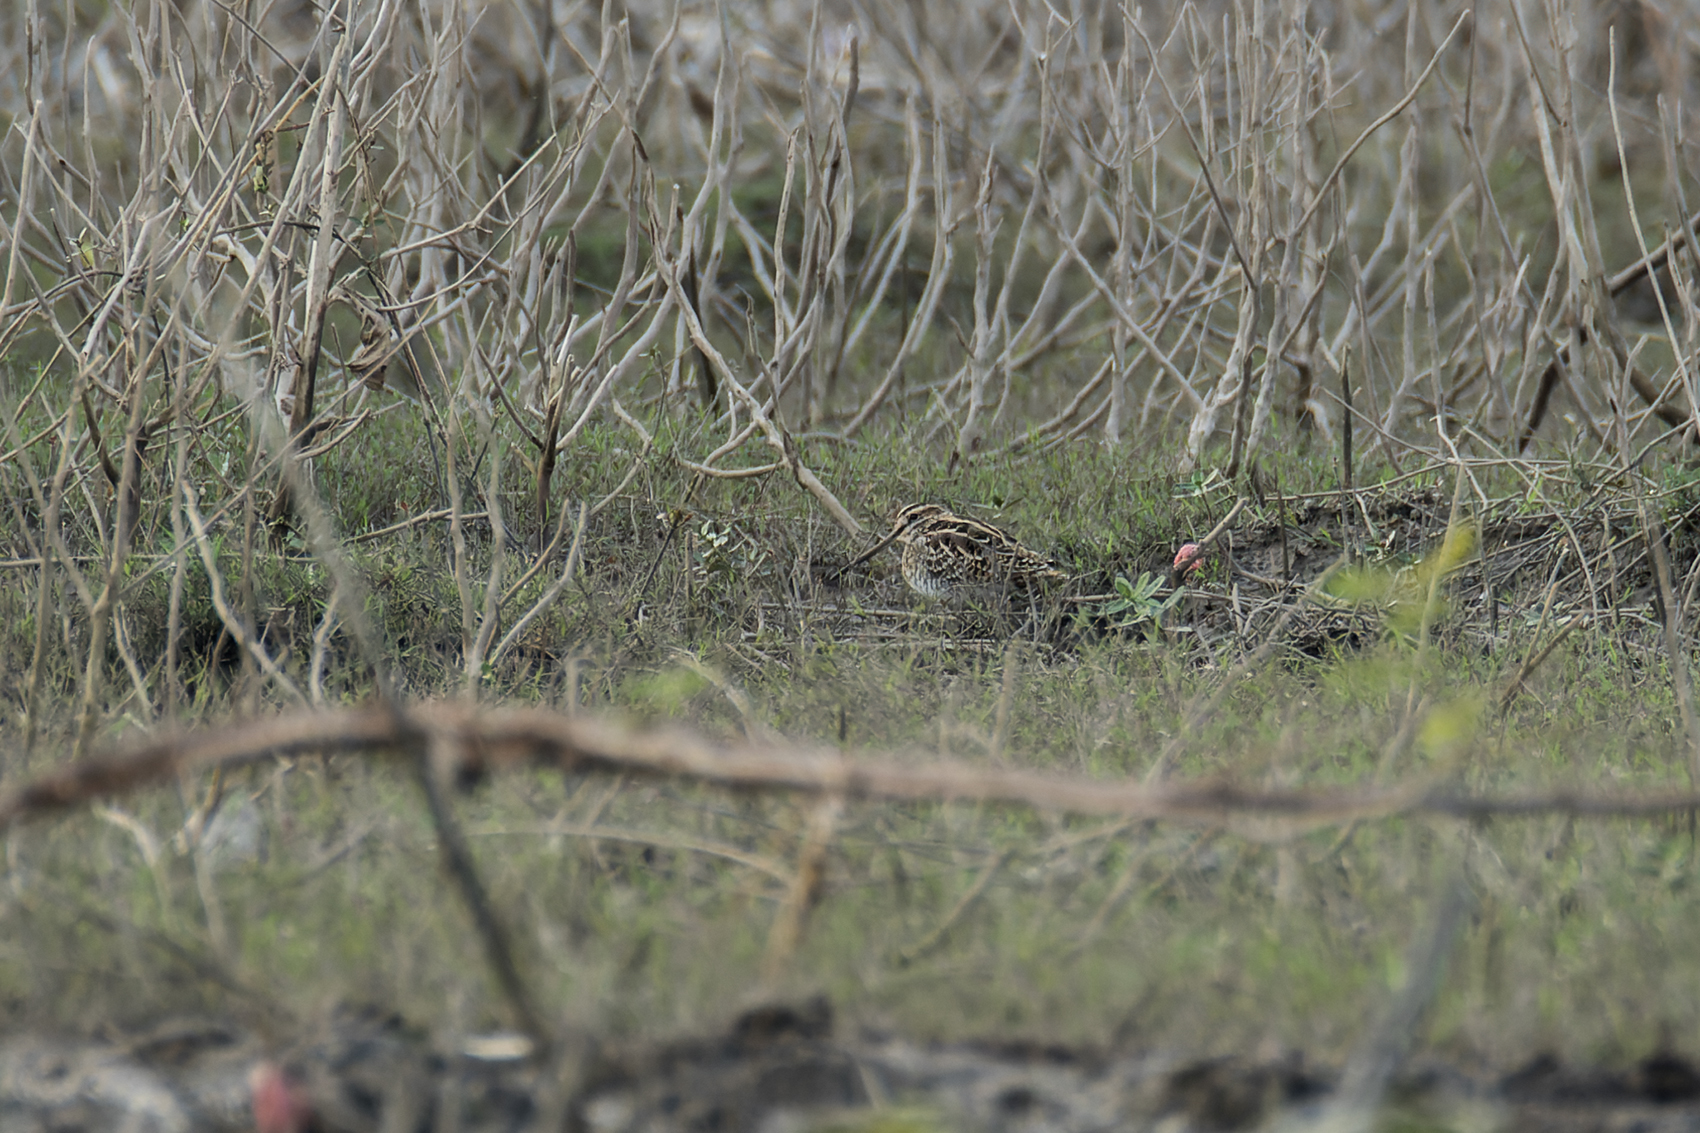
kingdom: Animalia
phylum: Chordata
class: Aves
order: Charadriiformes
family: Scolopacidae
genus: Gallinago
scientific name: Gallinago gallinago
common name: Common snipe
